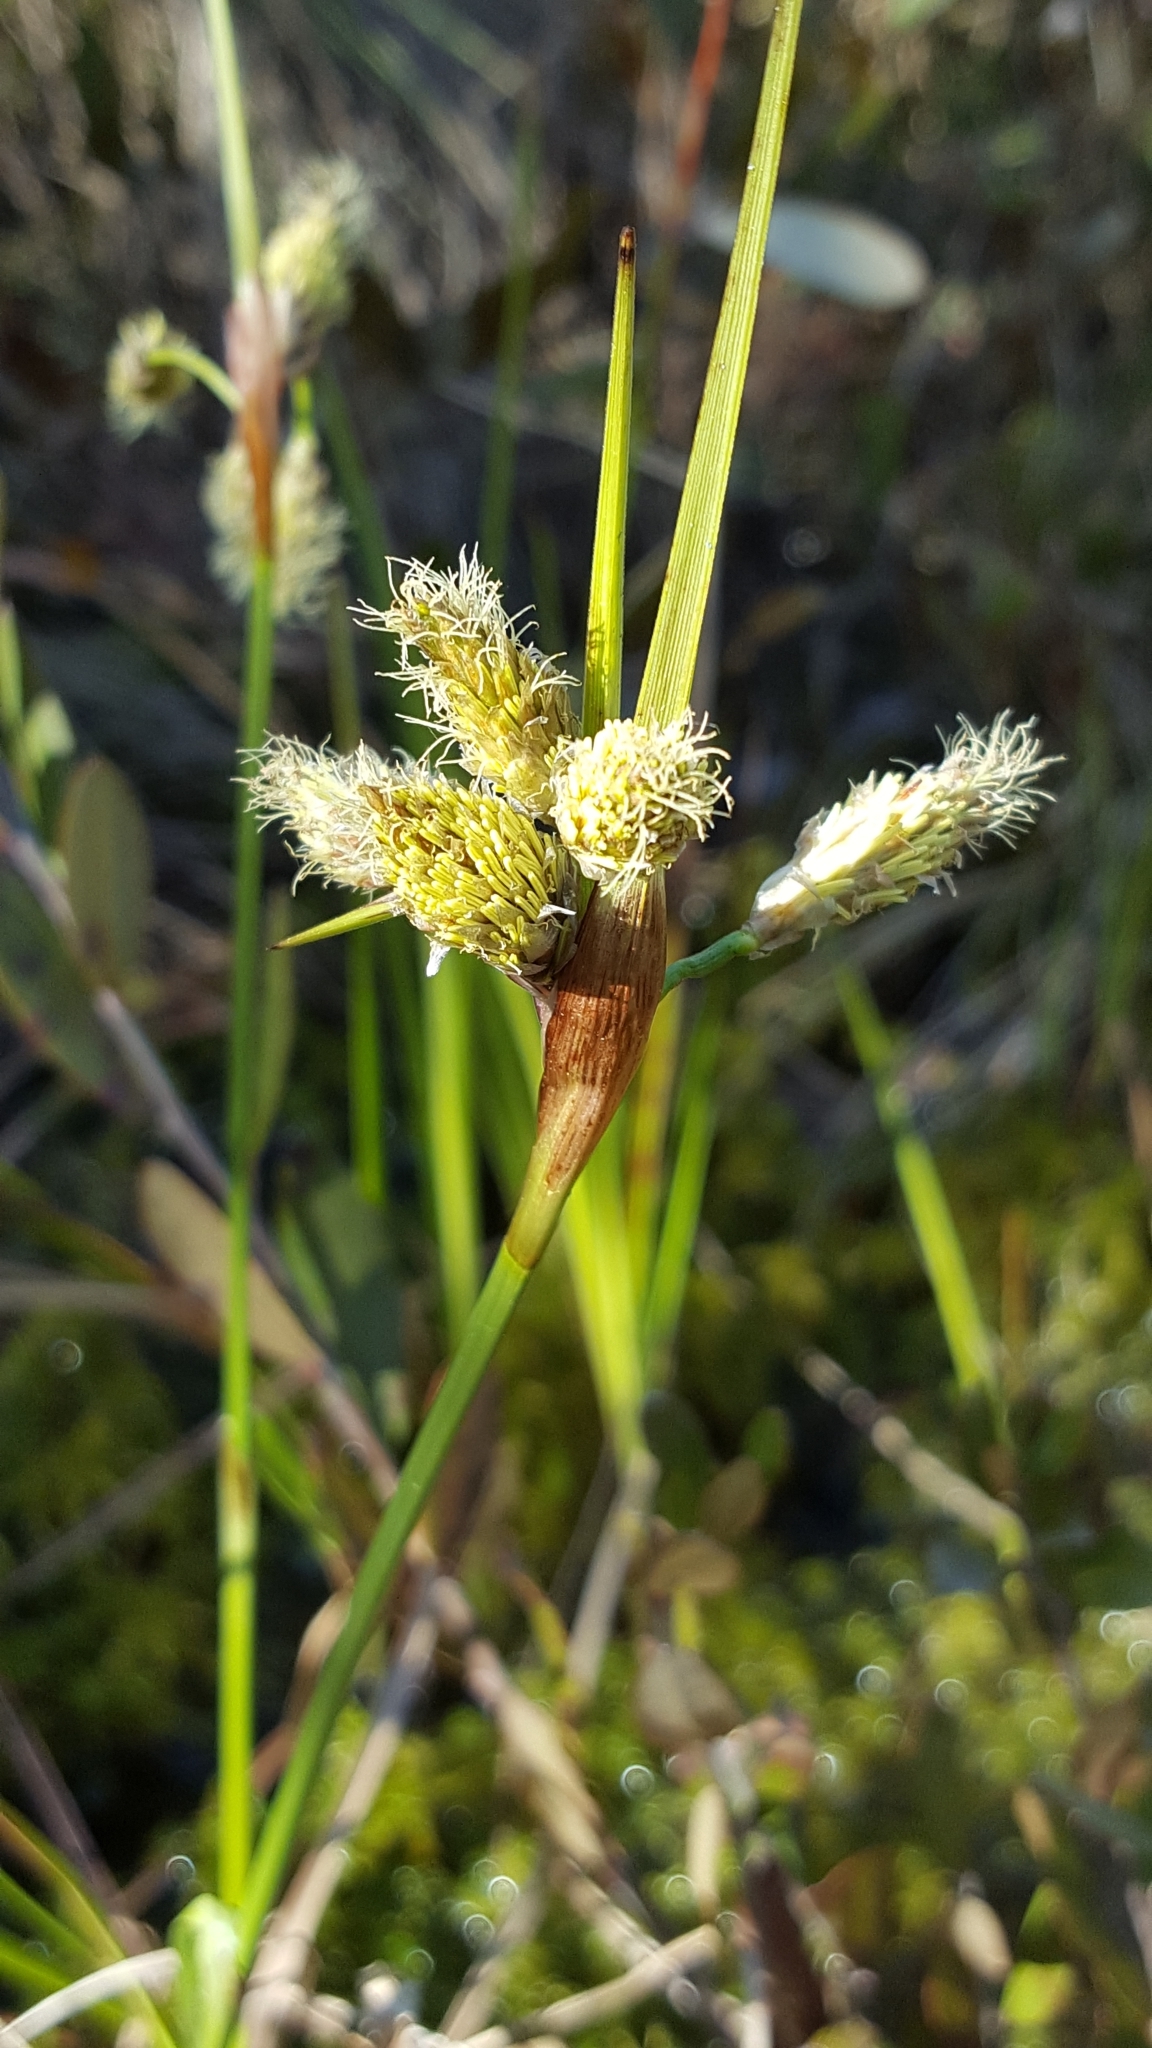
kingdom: Plantae
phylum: Tracheophyta
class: Liliopsida
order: Poales
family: Cyperaceae
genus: Eriophorum
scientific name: Eriophorum angustifolium
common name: Common cottongrass
